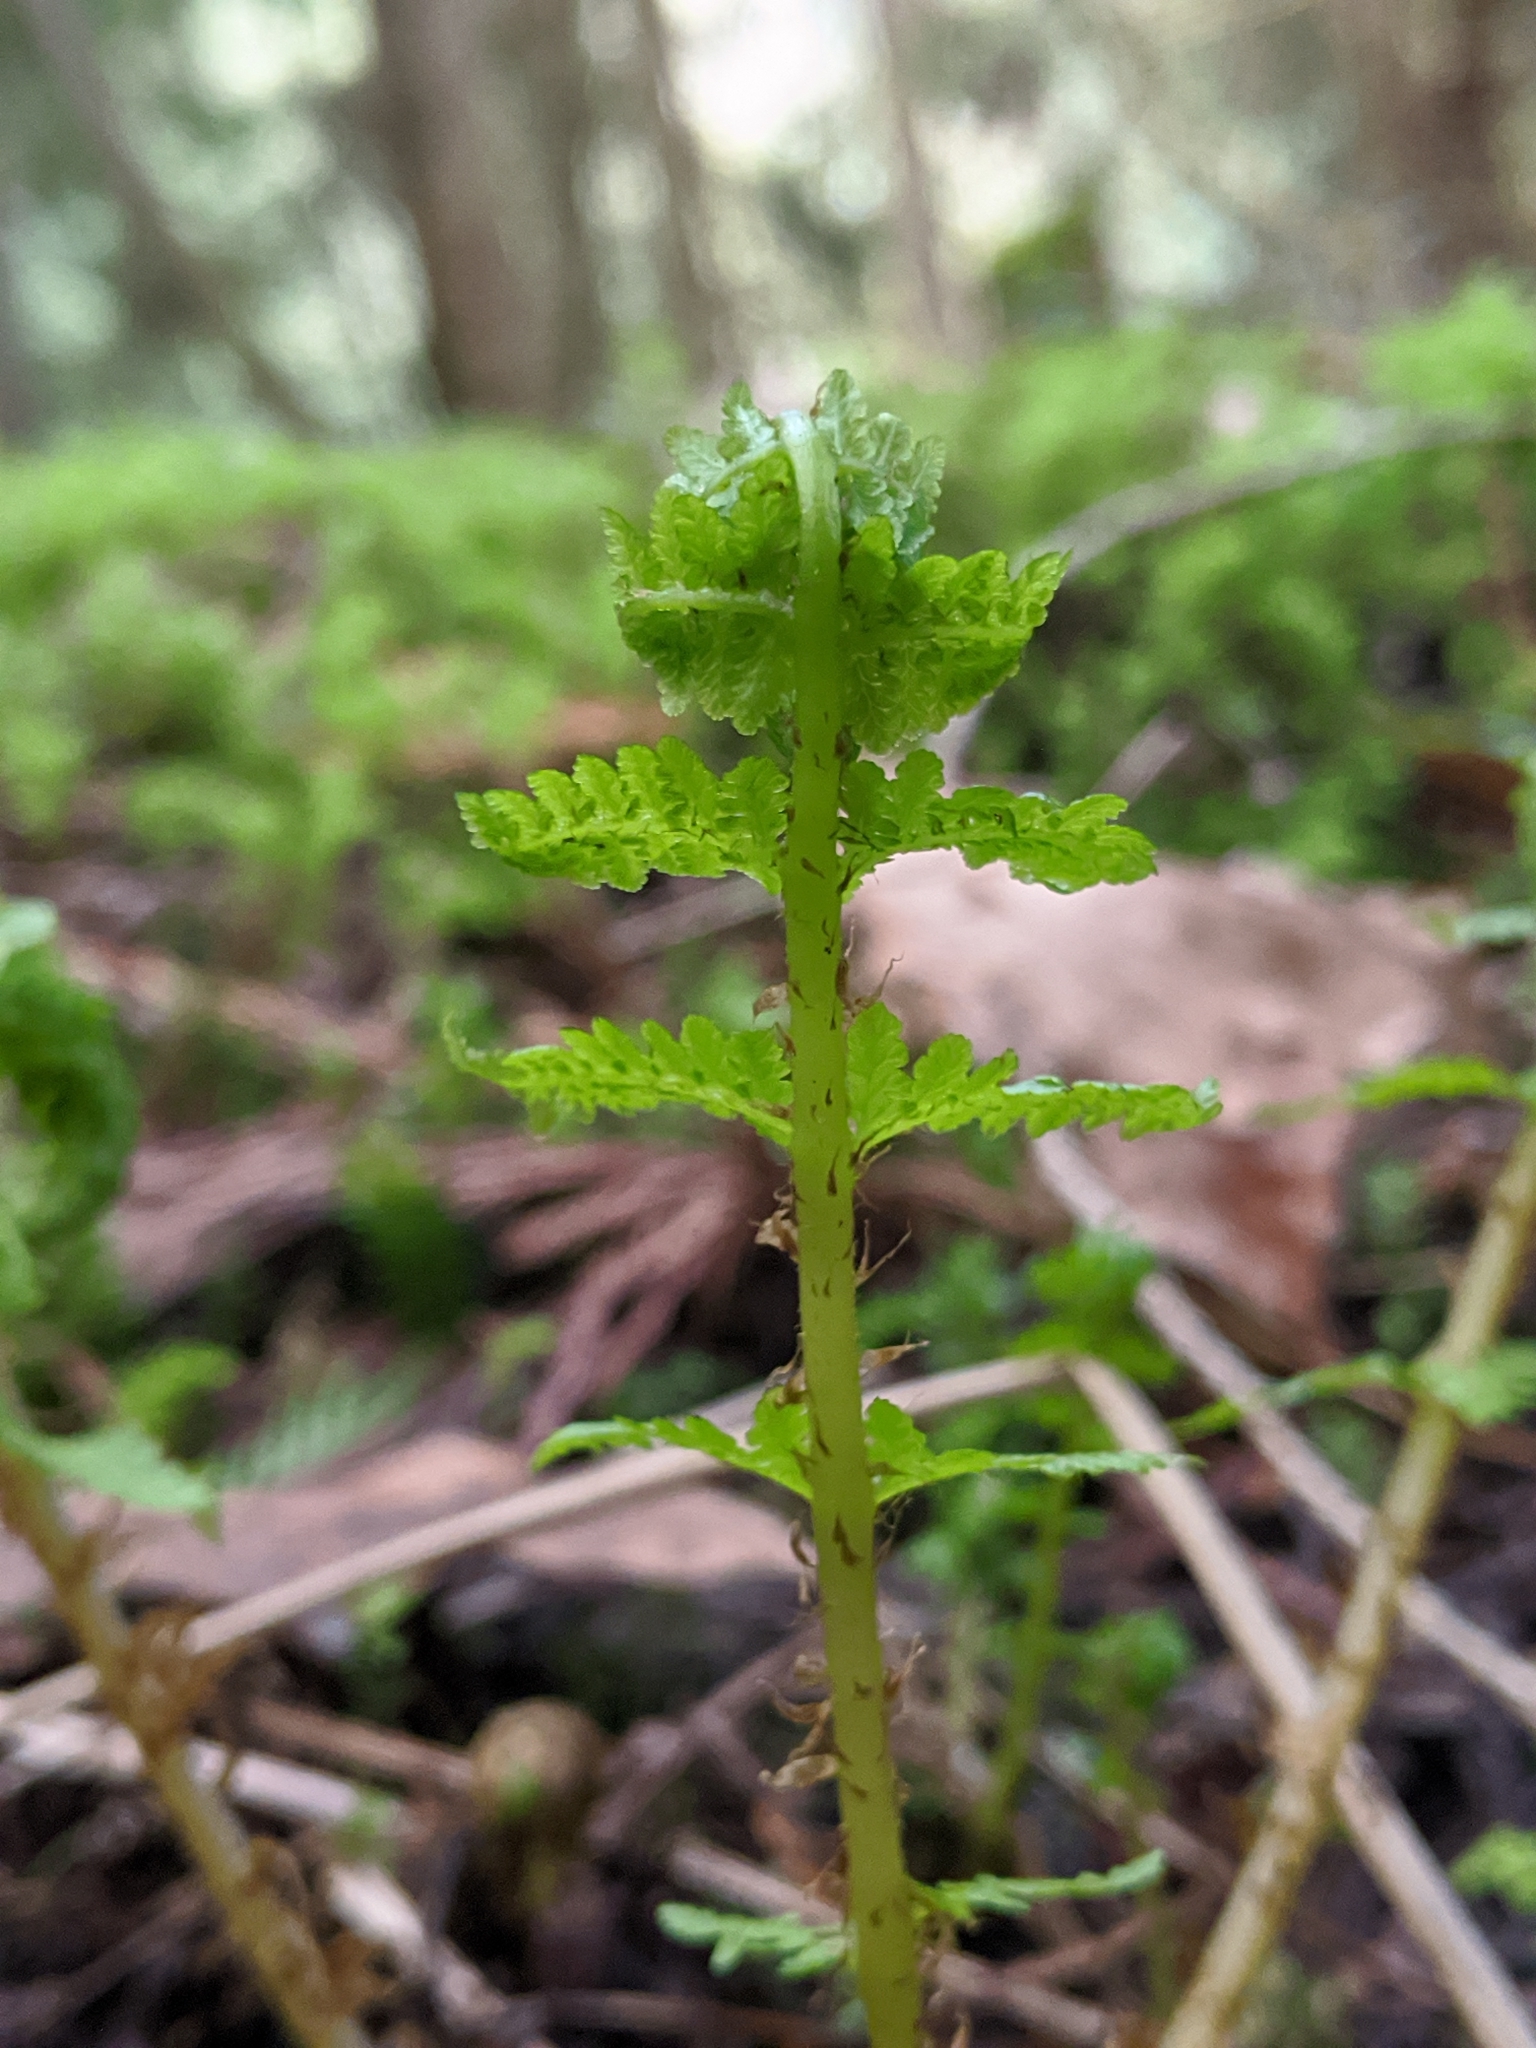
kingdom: Plantae
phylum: Tracheophyta
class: Polypodiopsida
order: Polypodiales
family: Athyriaceae
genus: Athyrium
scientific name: Athyrium filix-femina
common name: Lady fern
